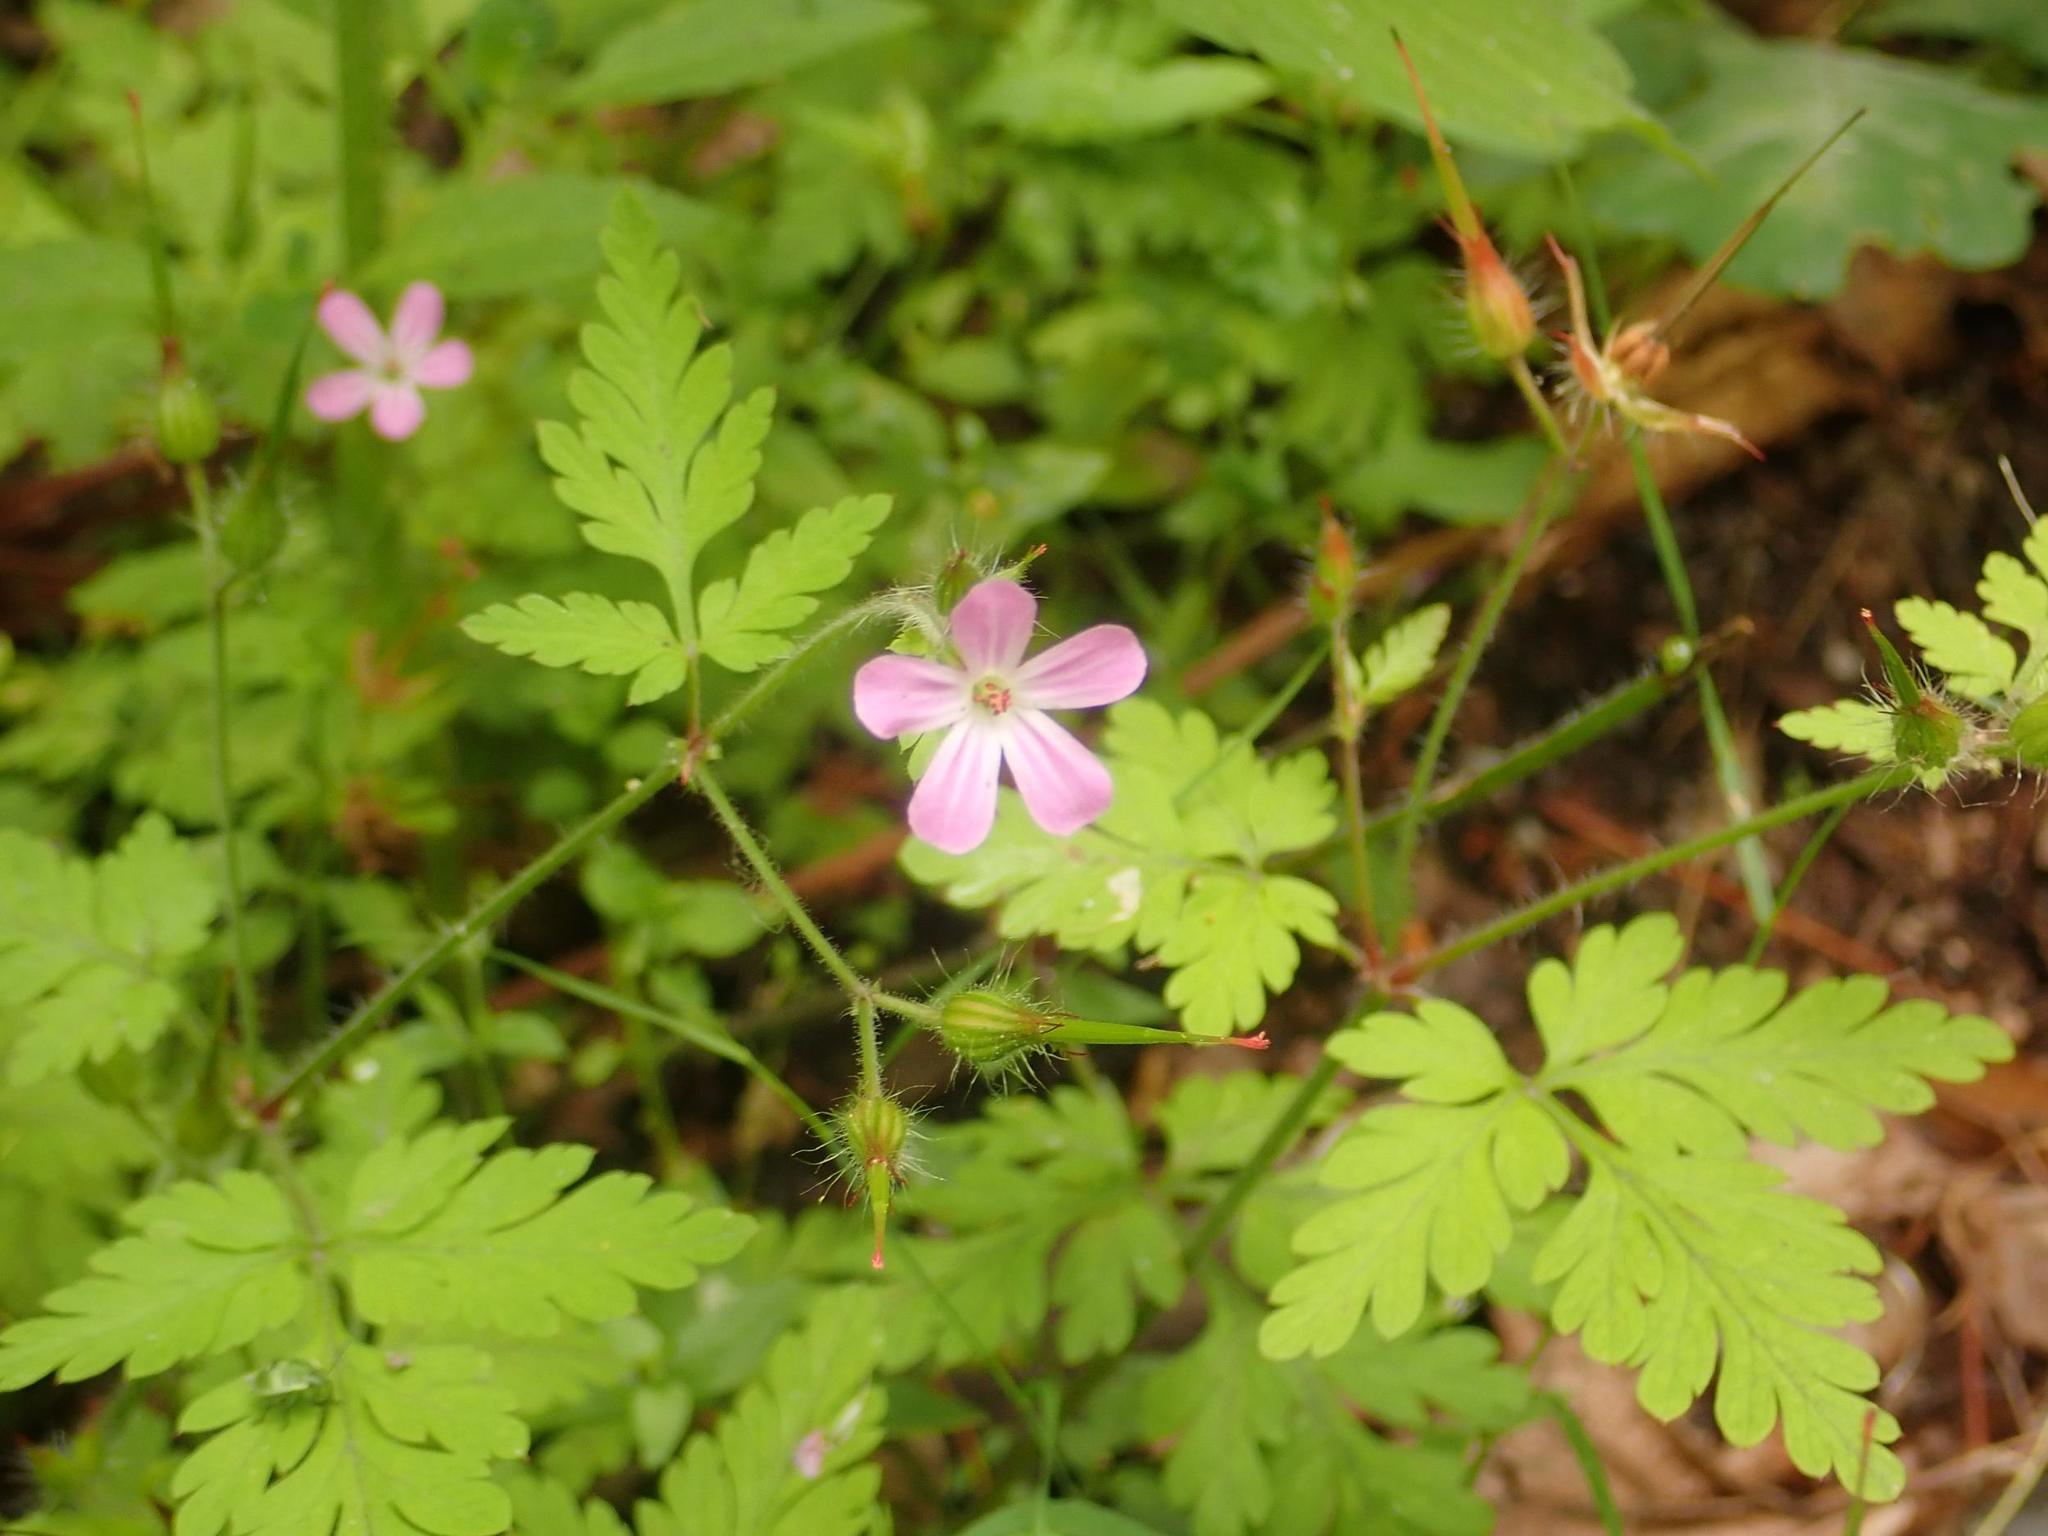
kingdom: Plantae
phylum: Tracheophyta
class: Magnoliopsida
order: Geraniales
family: Geraniaceae
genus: Geranium
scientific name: Geranium robertianum
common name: Herb-robert
